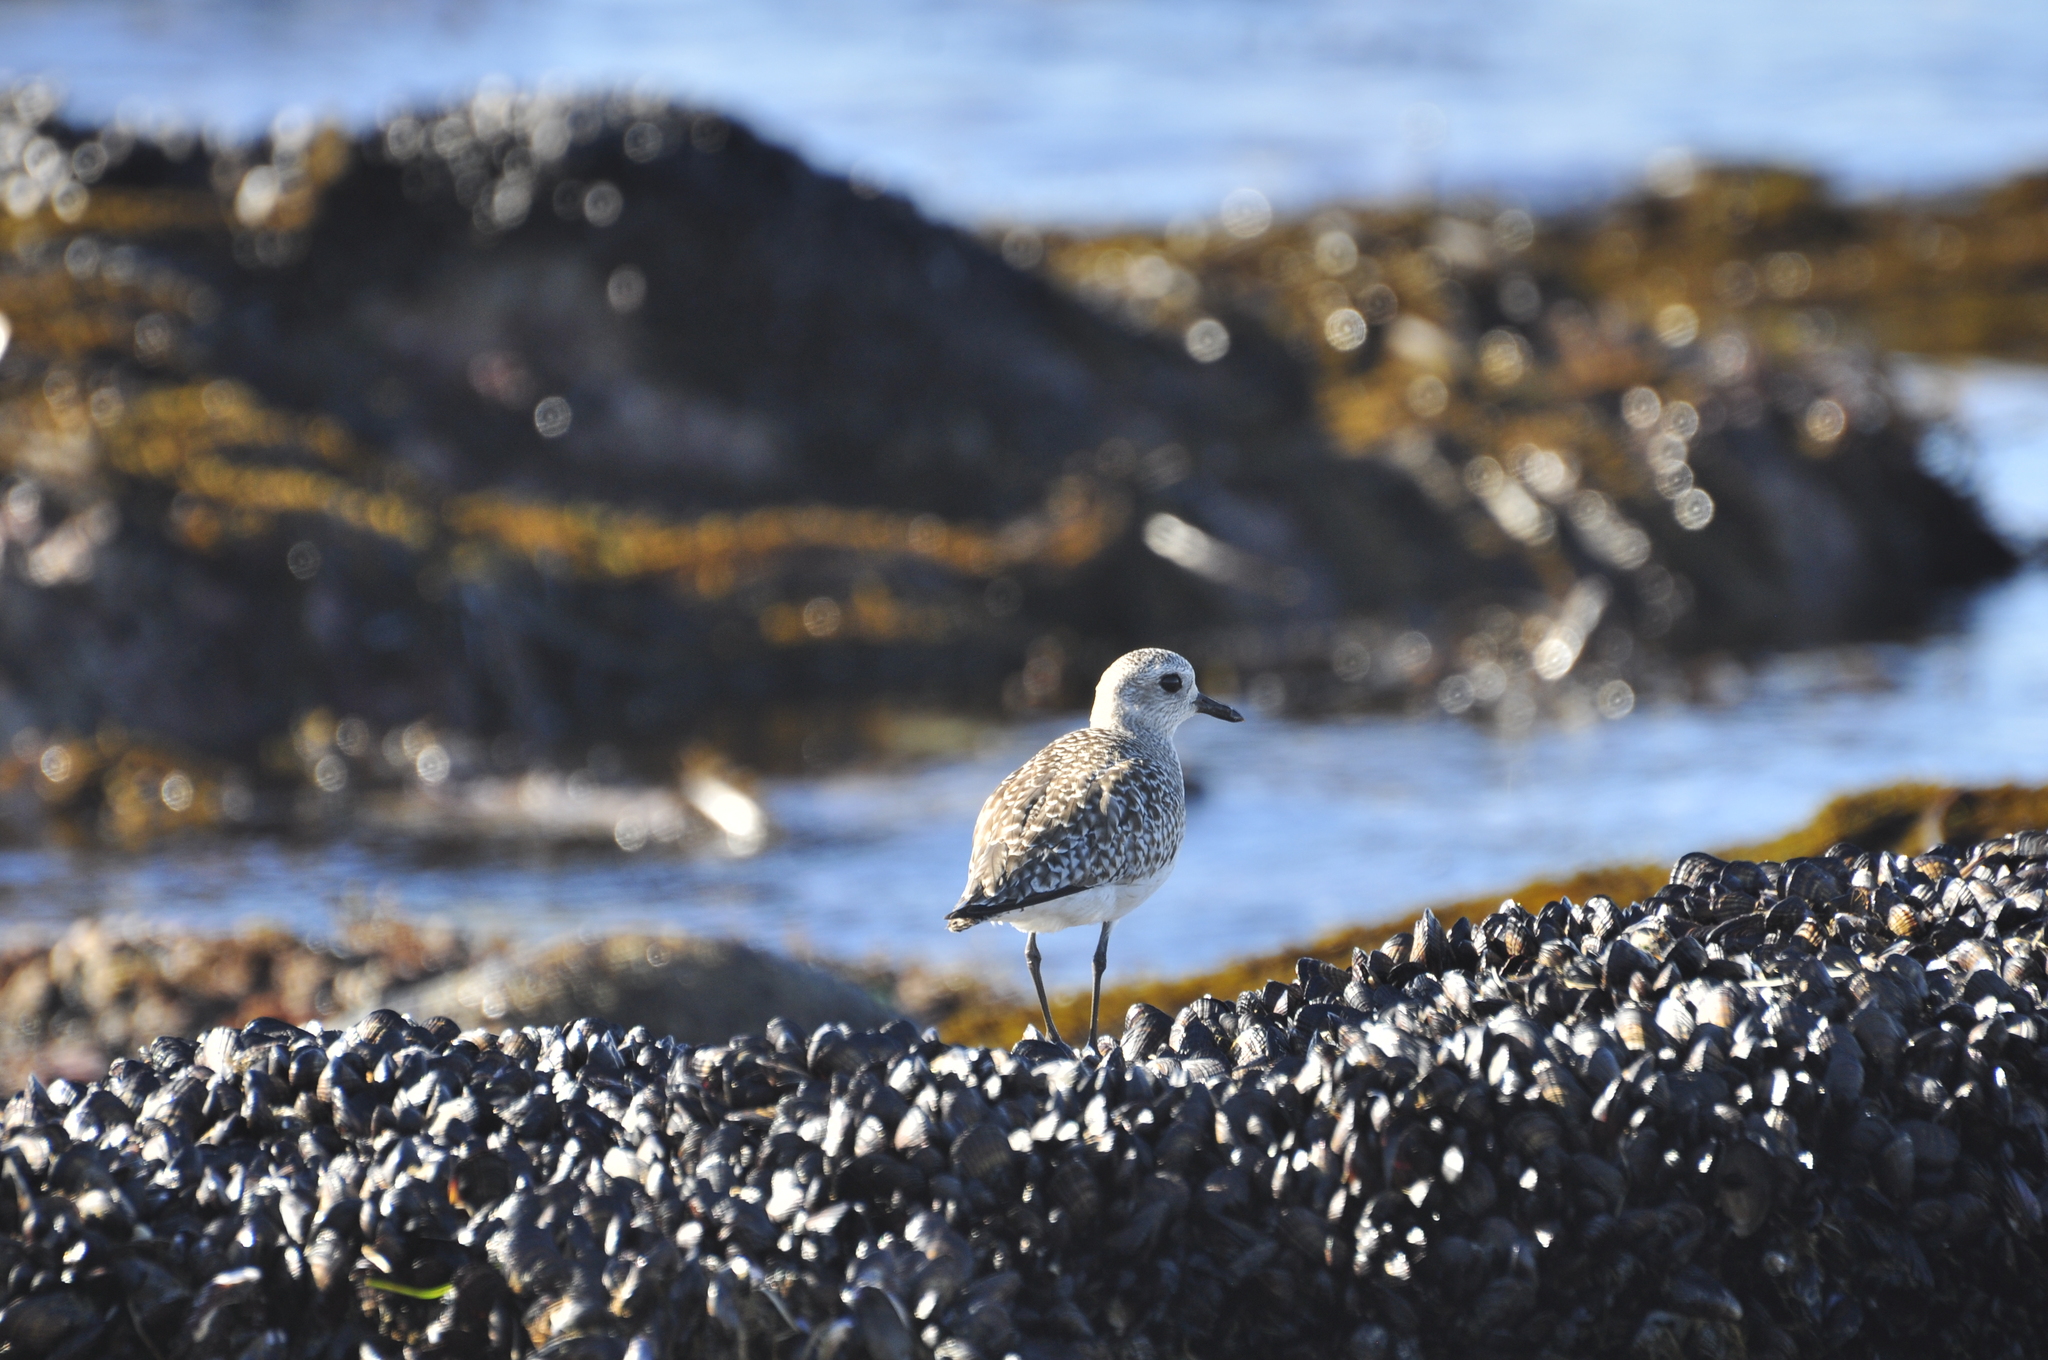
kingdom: Animalia
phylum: Chordata
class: Aves
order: Charadriiformes
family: Charadriidae
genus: Pluvialis
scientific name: Pluvialis squatarola
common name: Grey plover
